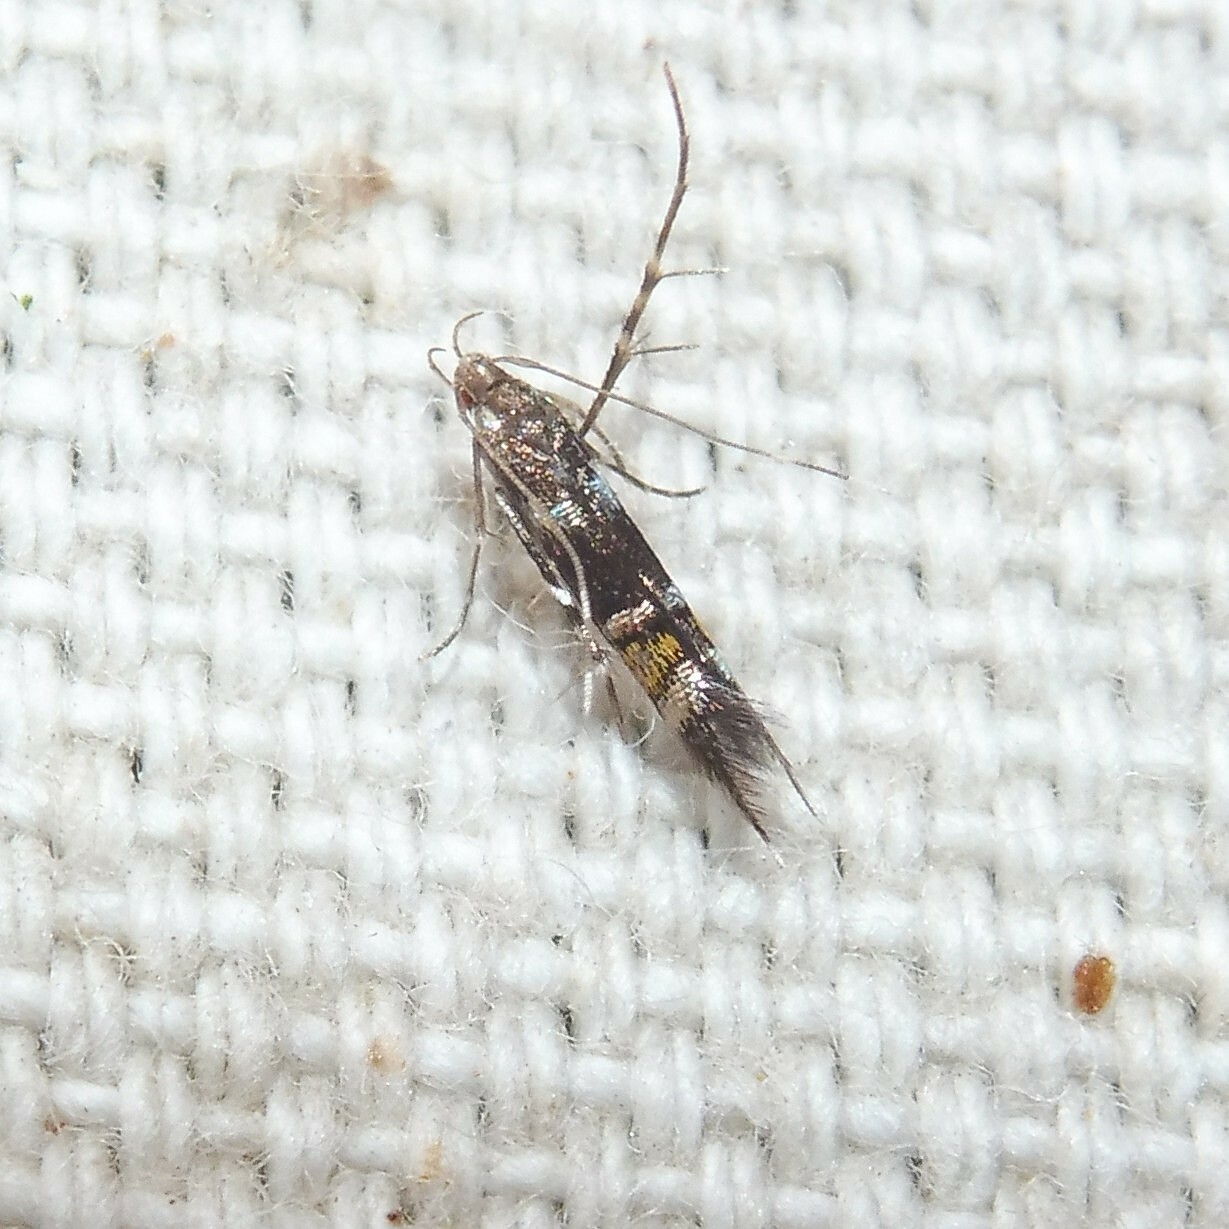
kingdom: Animalia
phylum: Arthropoda
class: Insecta
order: Lepidoptera
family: Cosmopterigidae
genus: Cosmopterix
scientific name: Cosmopterix zieglerella
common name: Hedge cosmet
